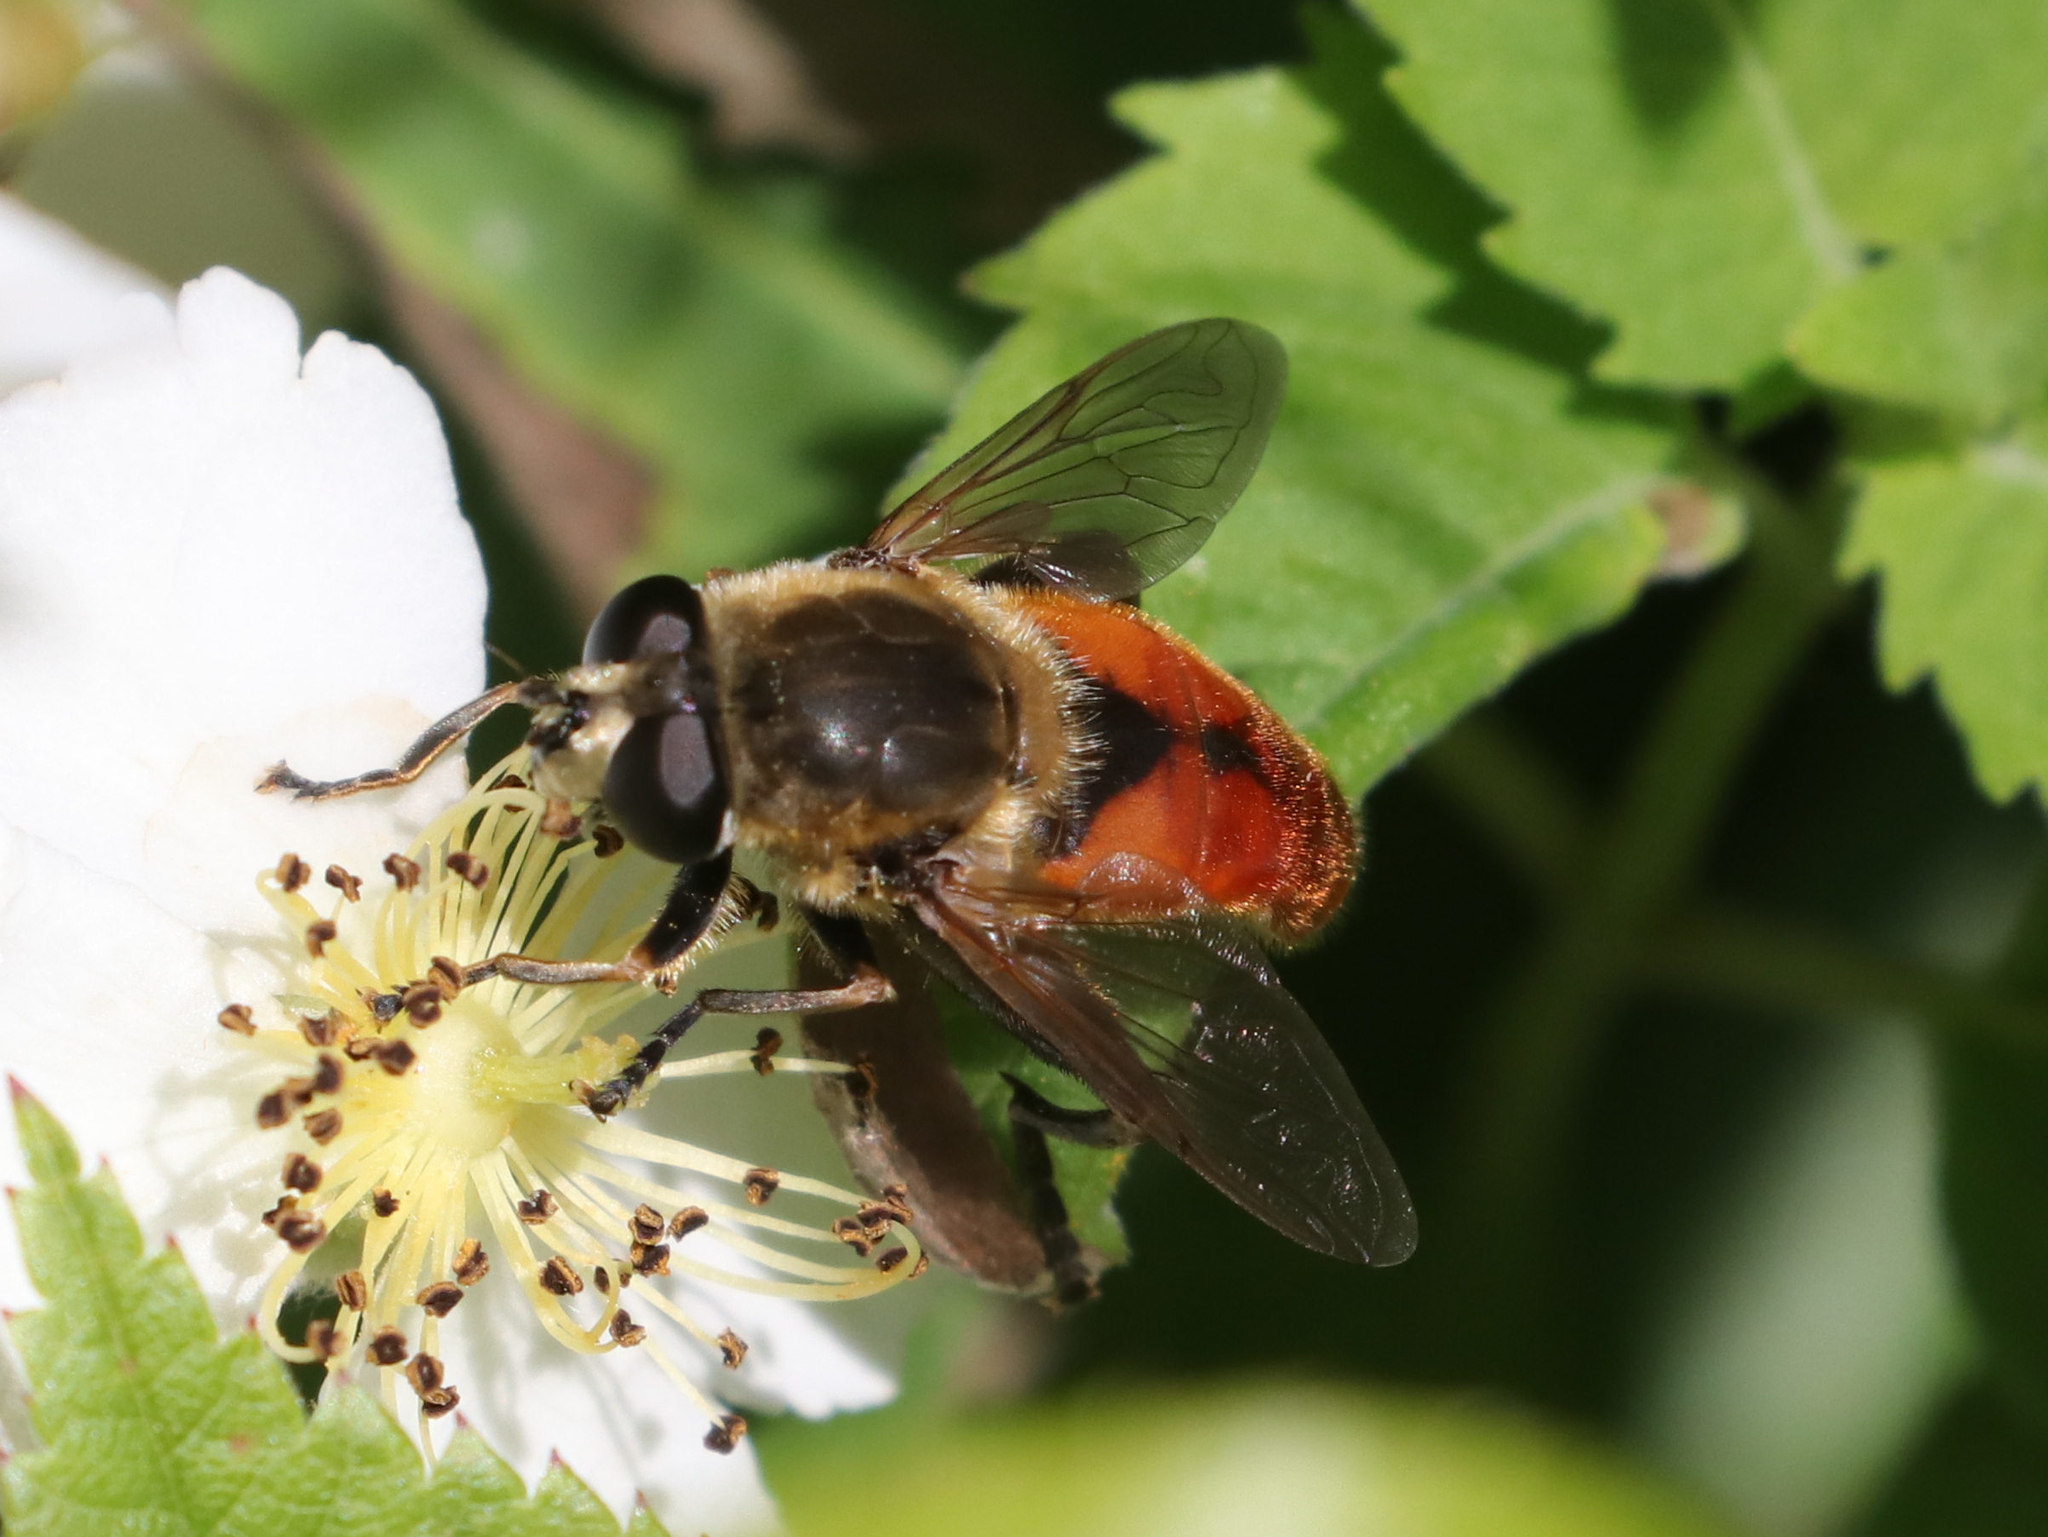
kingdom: Animalia
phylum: Arthropoda
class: Insecta
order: Diptera
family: Syrphidae
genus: Polydontomyia
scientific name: Polydontomyia curvipes
